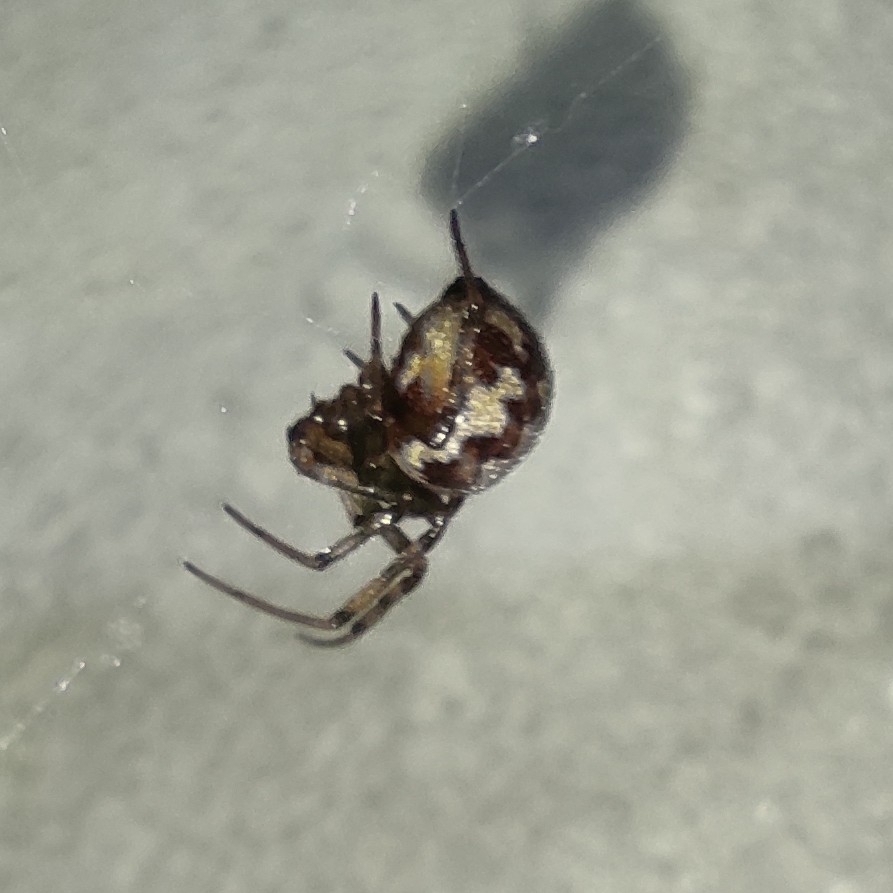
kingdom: Animalia
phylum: Arthropoda
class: Arachnida
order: Araneae
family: Theridiidae
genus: Steatoda
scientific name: Steatoda triangulosa
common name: Triangulate bud spider
